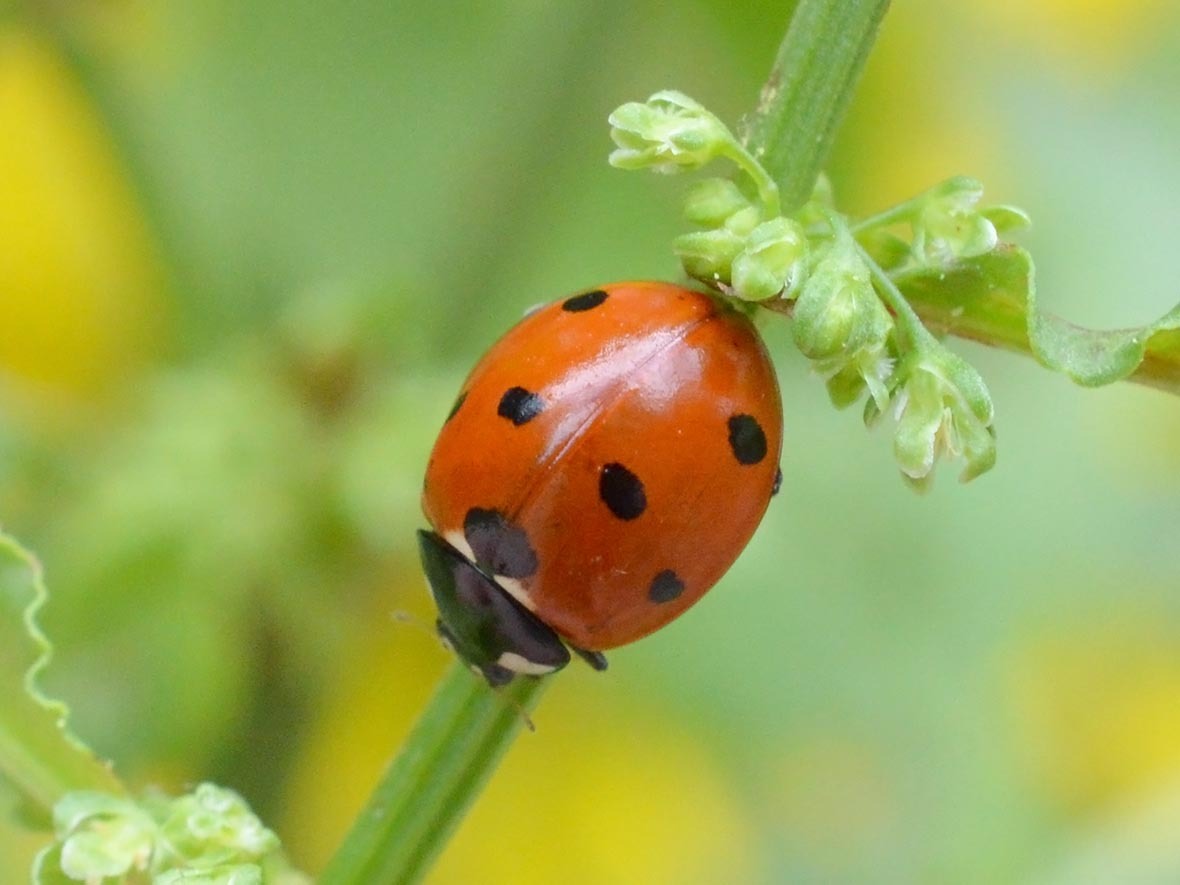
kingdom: Animalia
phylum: Arthropoda
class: Insecta
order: Coleoptera
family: Coccinellidae
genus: Coccinella
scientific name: Coccinella septempunctata
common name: Sevenspotted lady beetle
